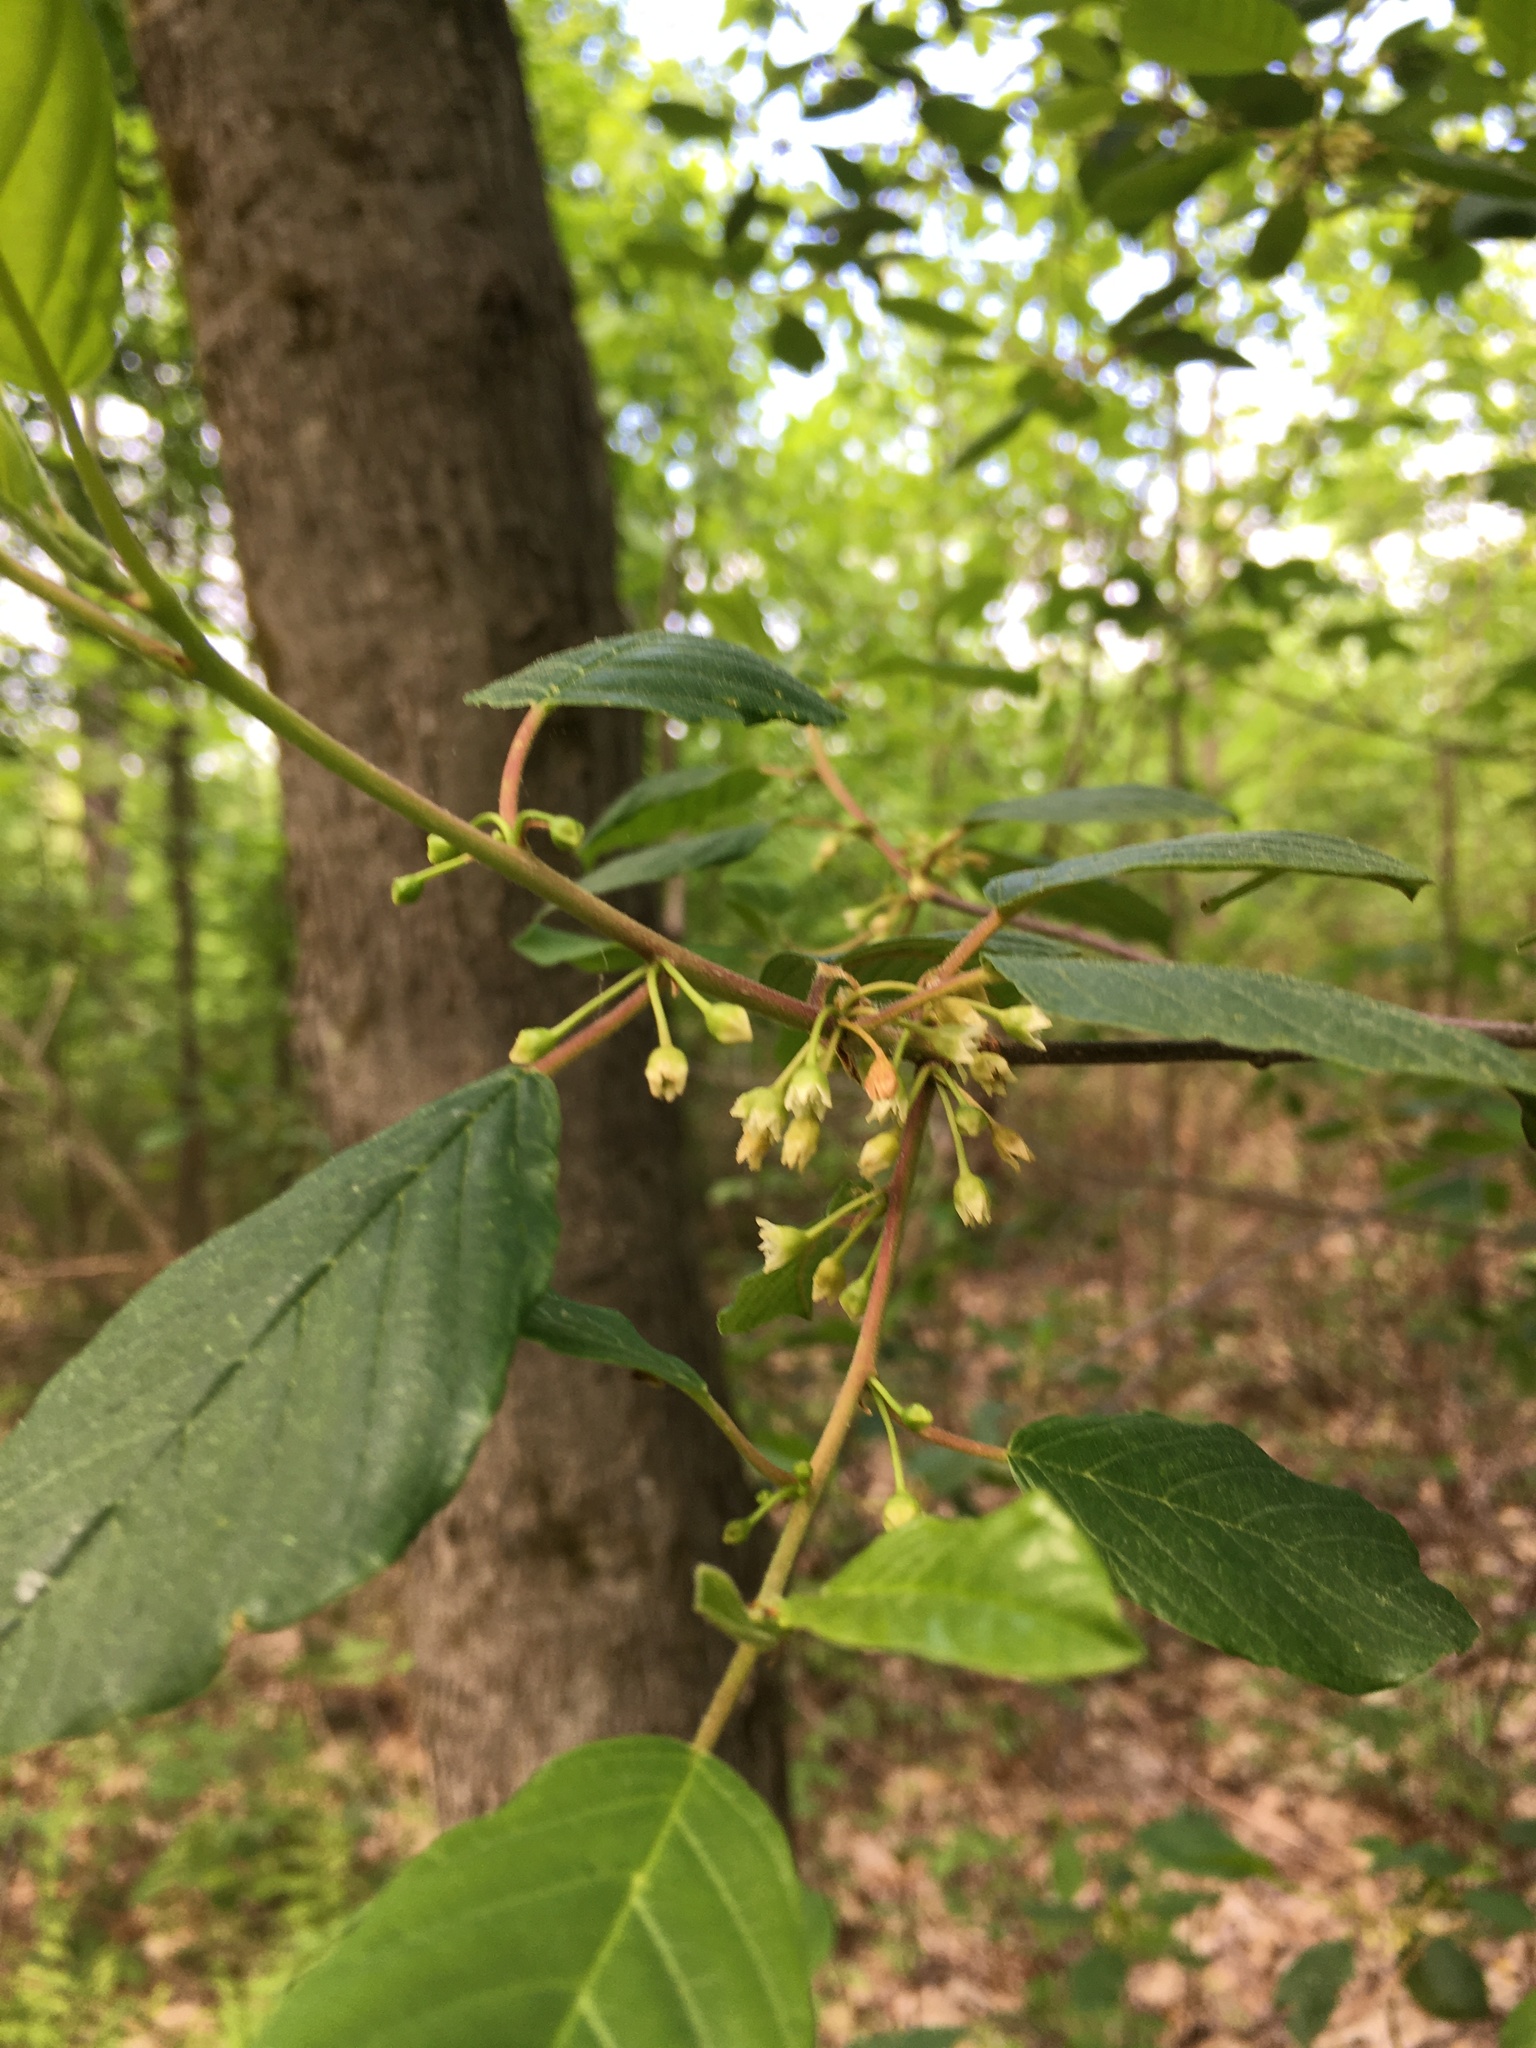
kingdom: Plantae
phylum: Tracheophyta
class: Magnoliopsida
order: Rosales
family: Rhamnaceae
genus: Frangula
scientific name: Frangula alnus
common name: Alder buckthorn
